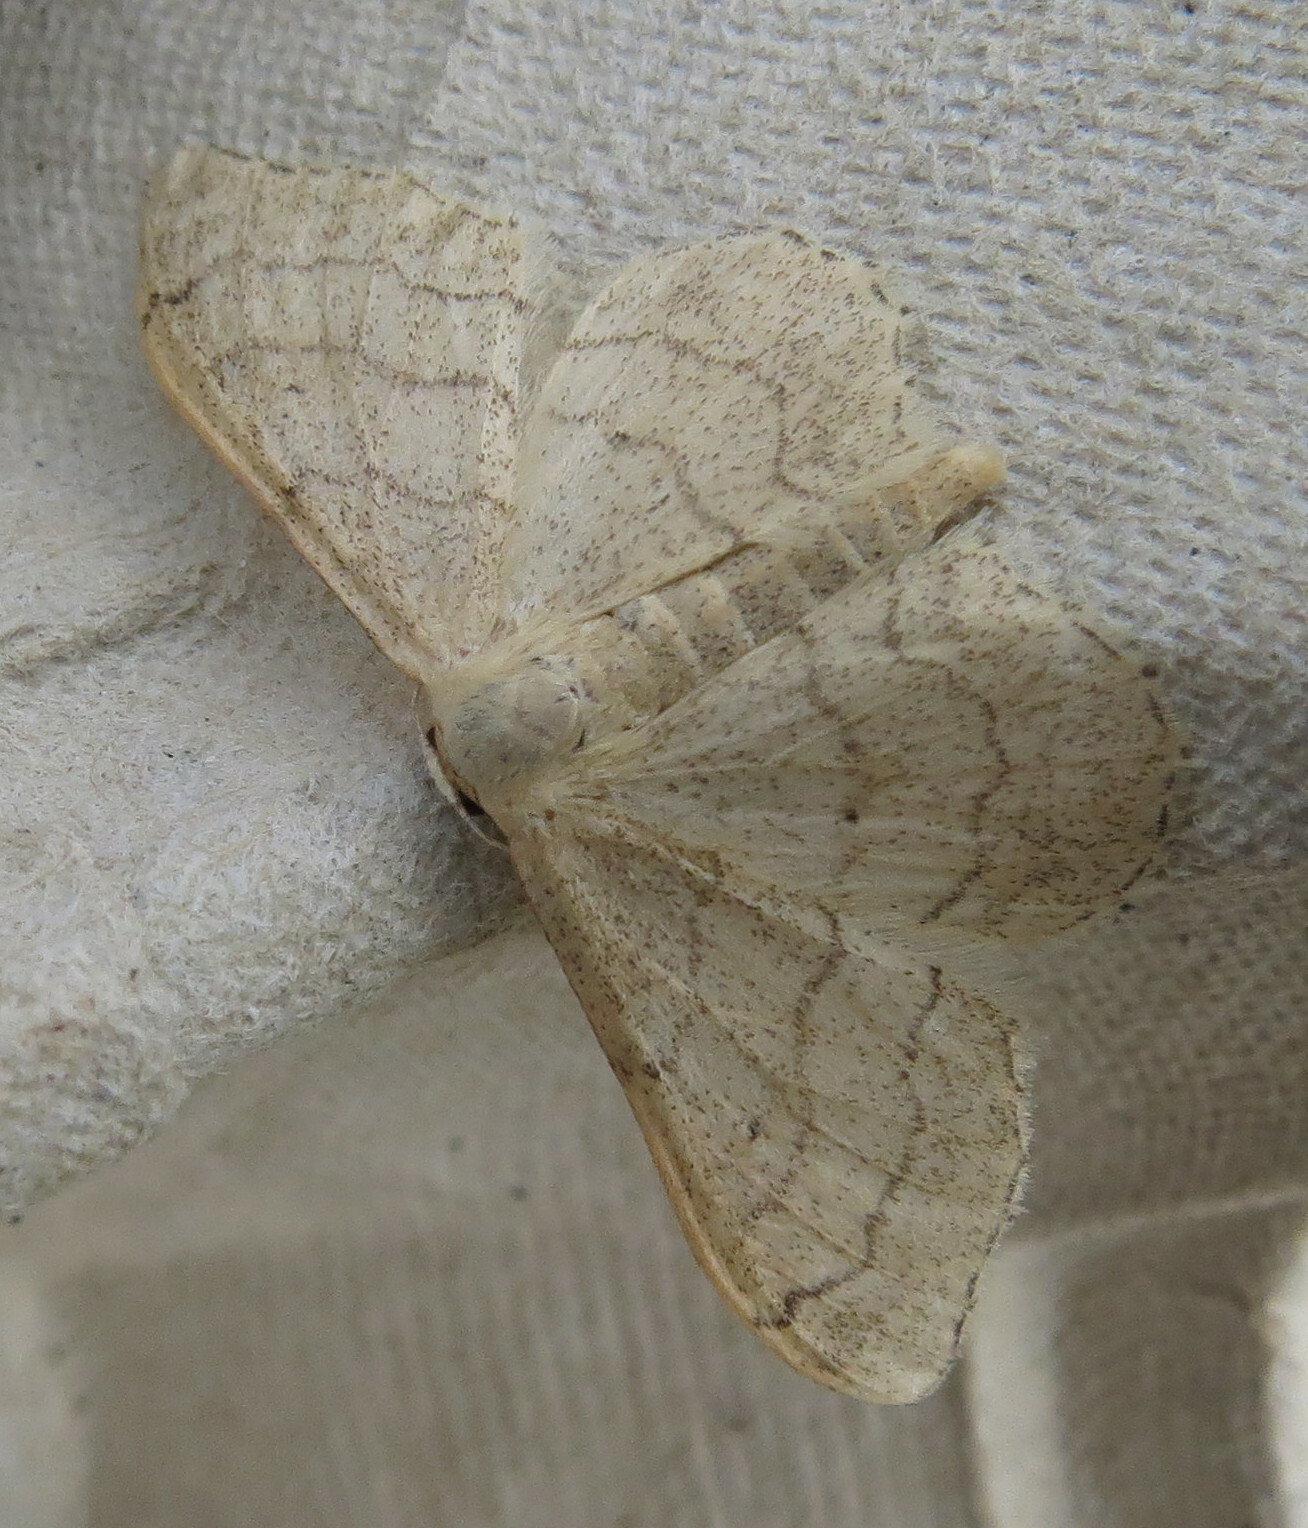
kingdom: Animalia
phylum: Arthropoda
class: Insecta
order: Lepidoptera
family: Geometridae
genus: Idaea
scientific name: Idaea aversata
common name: Riband wave
